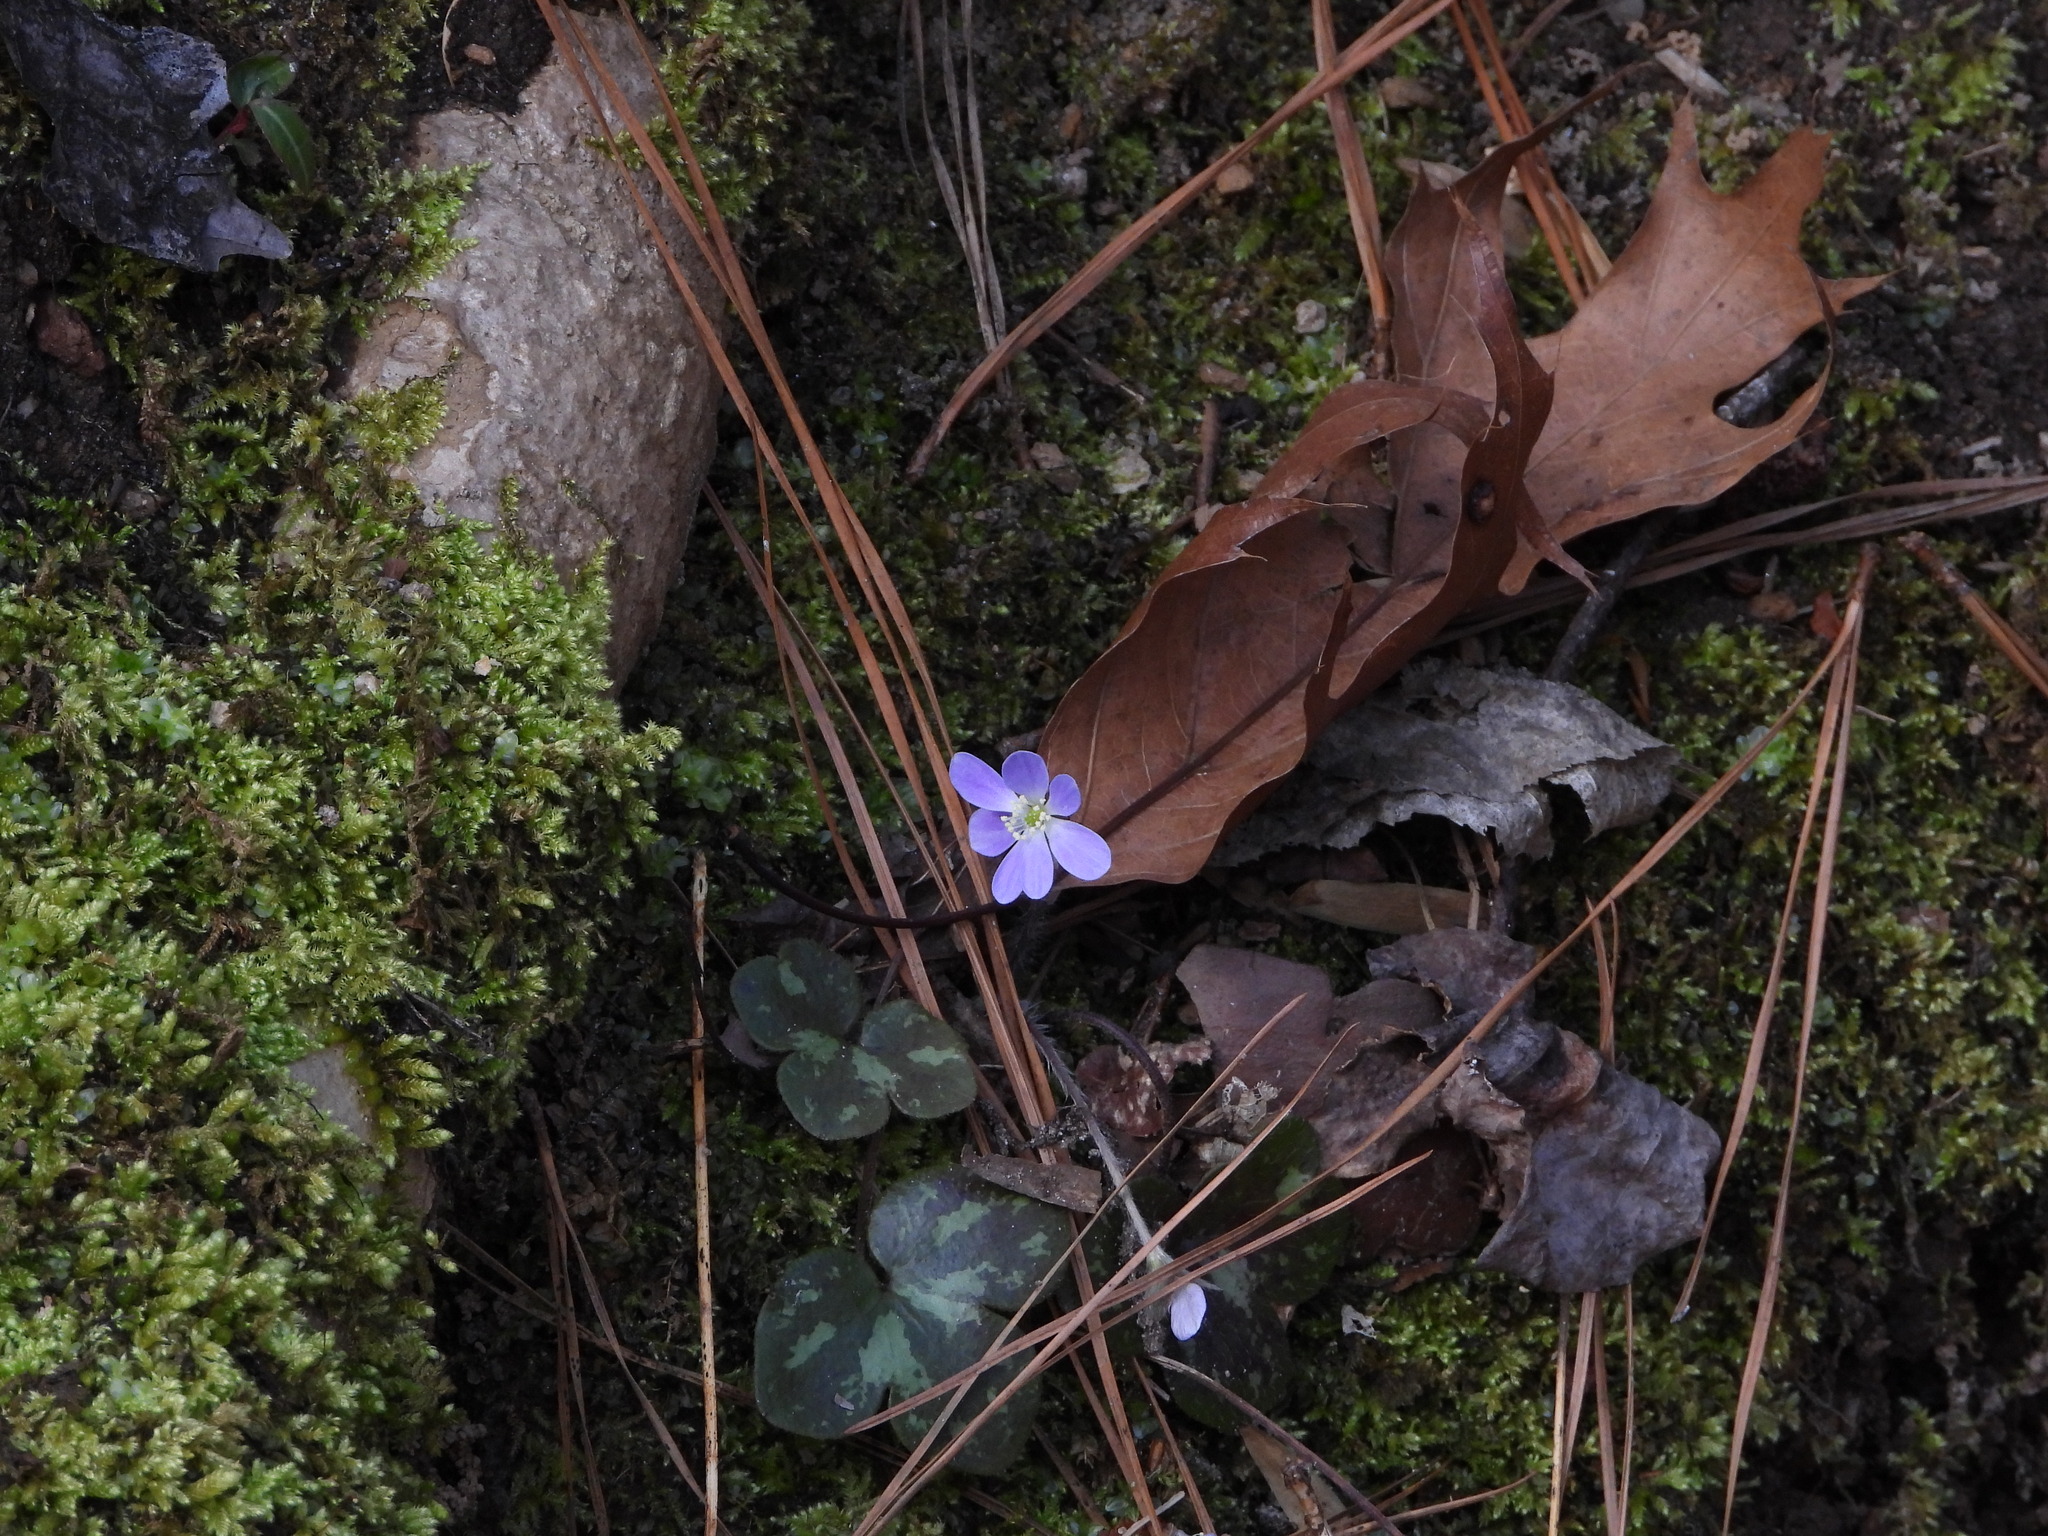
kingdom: Plantae
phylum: Tracheophyta
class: Magnoliopsida
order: Ranunculales
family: Ranunculaceae
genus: Hepatica
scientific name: Hepatica americana
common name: American hepatica
